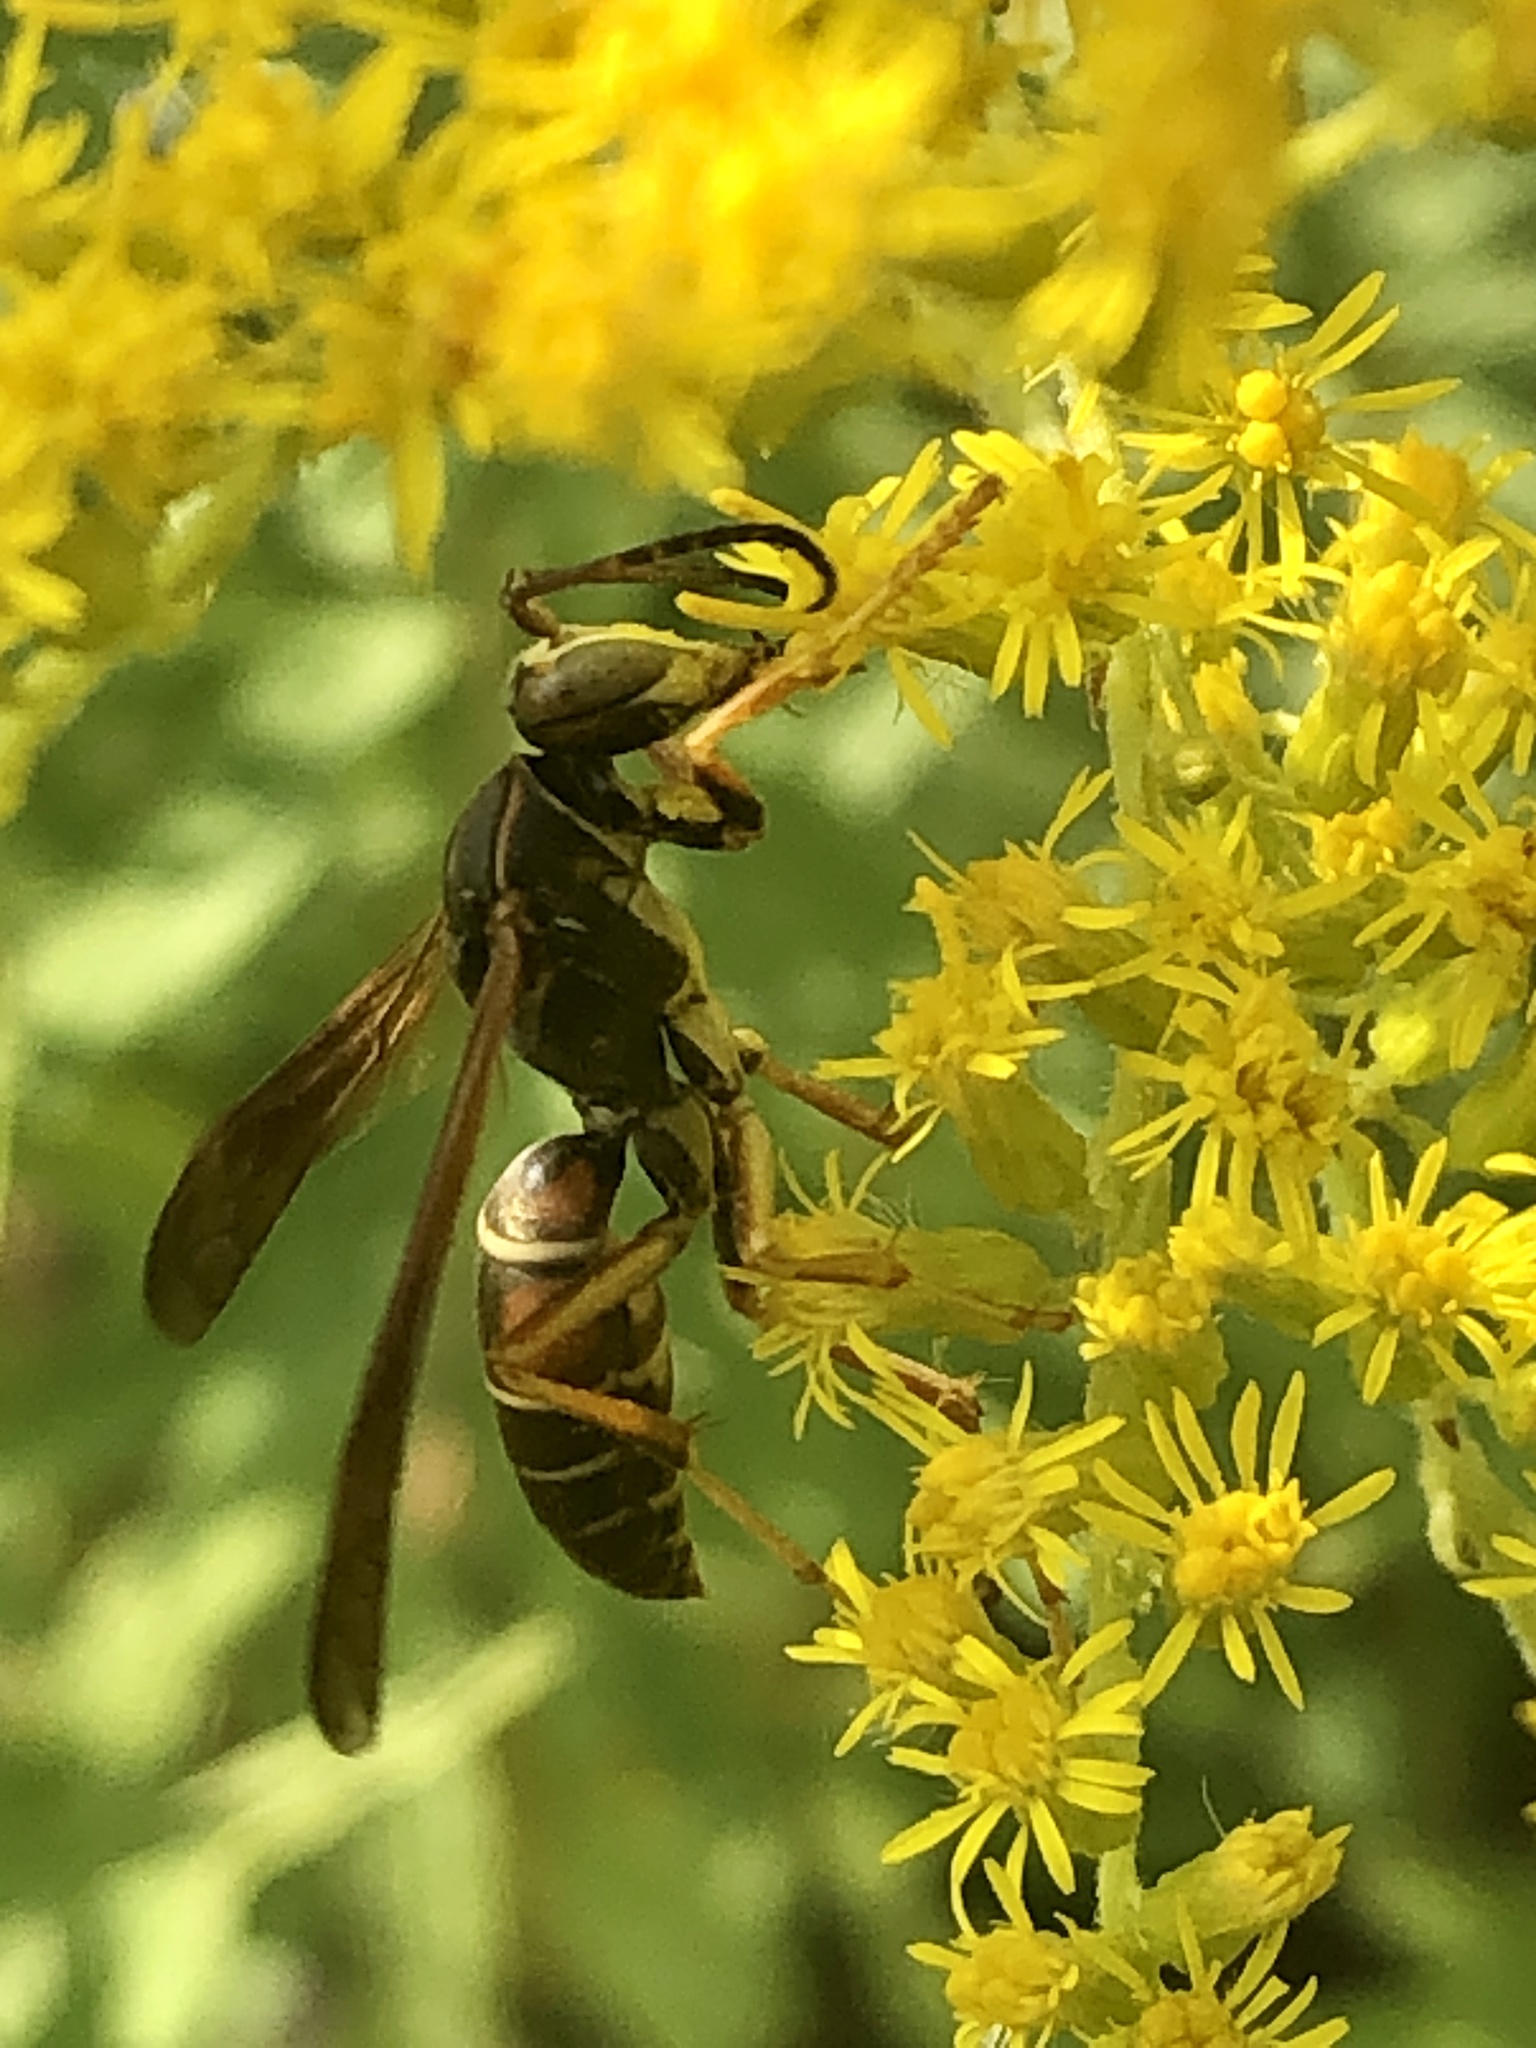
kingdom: Animalia
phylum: Arthropoda
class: Insecta
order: Hymenoptera
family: Eumenidae
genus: Polistes
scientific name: Polistes fuscatus
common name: Dark paper wasp
